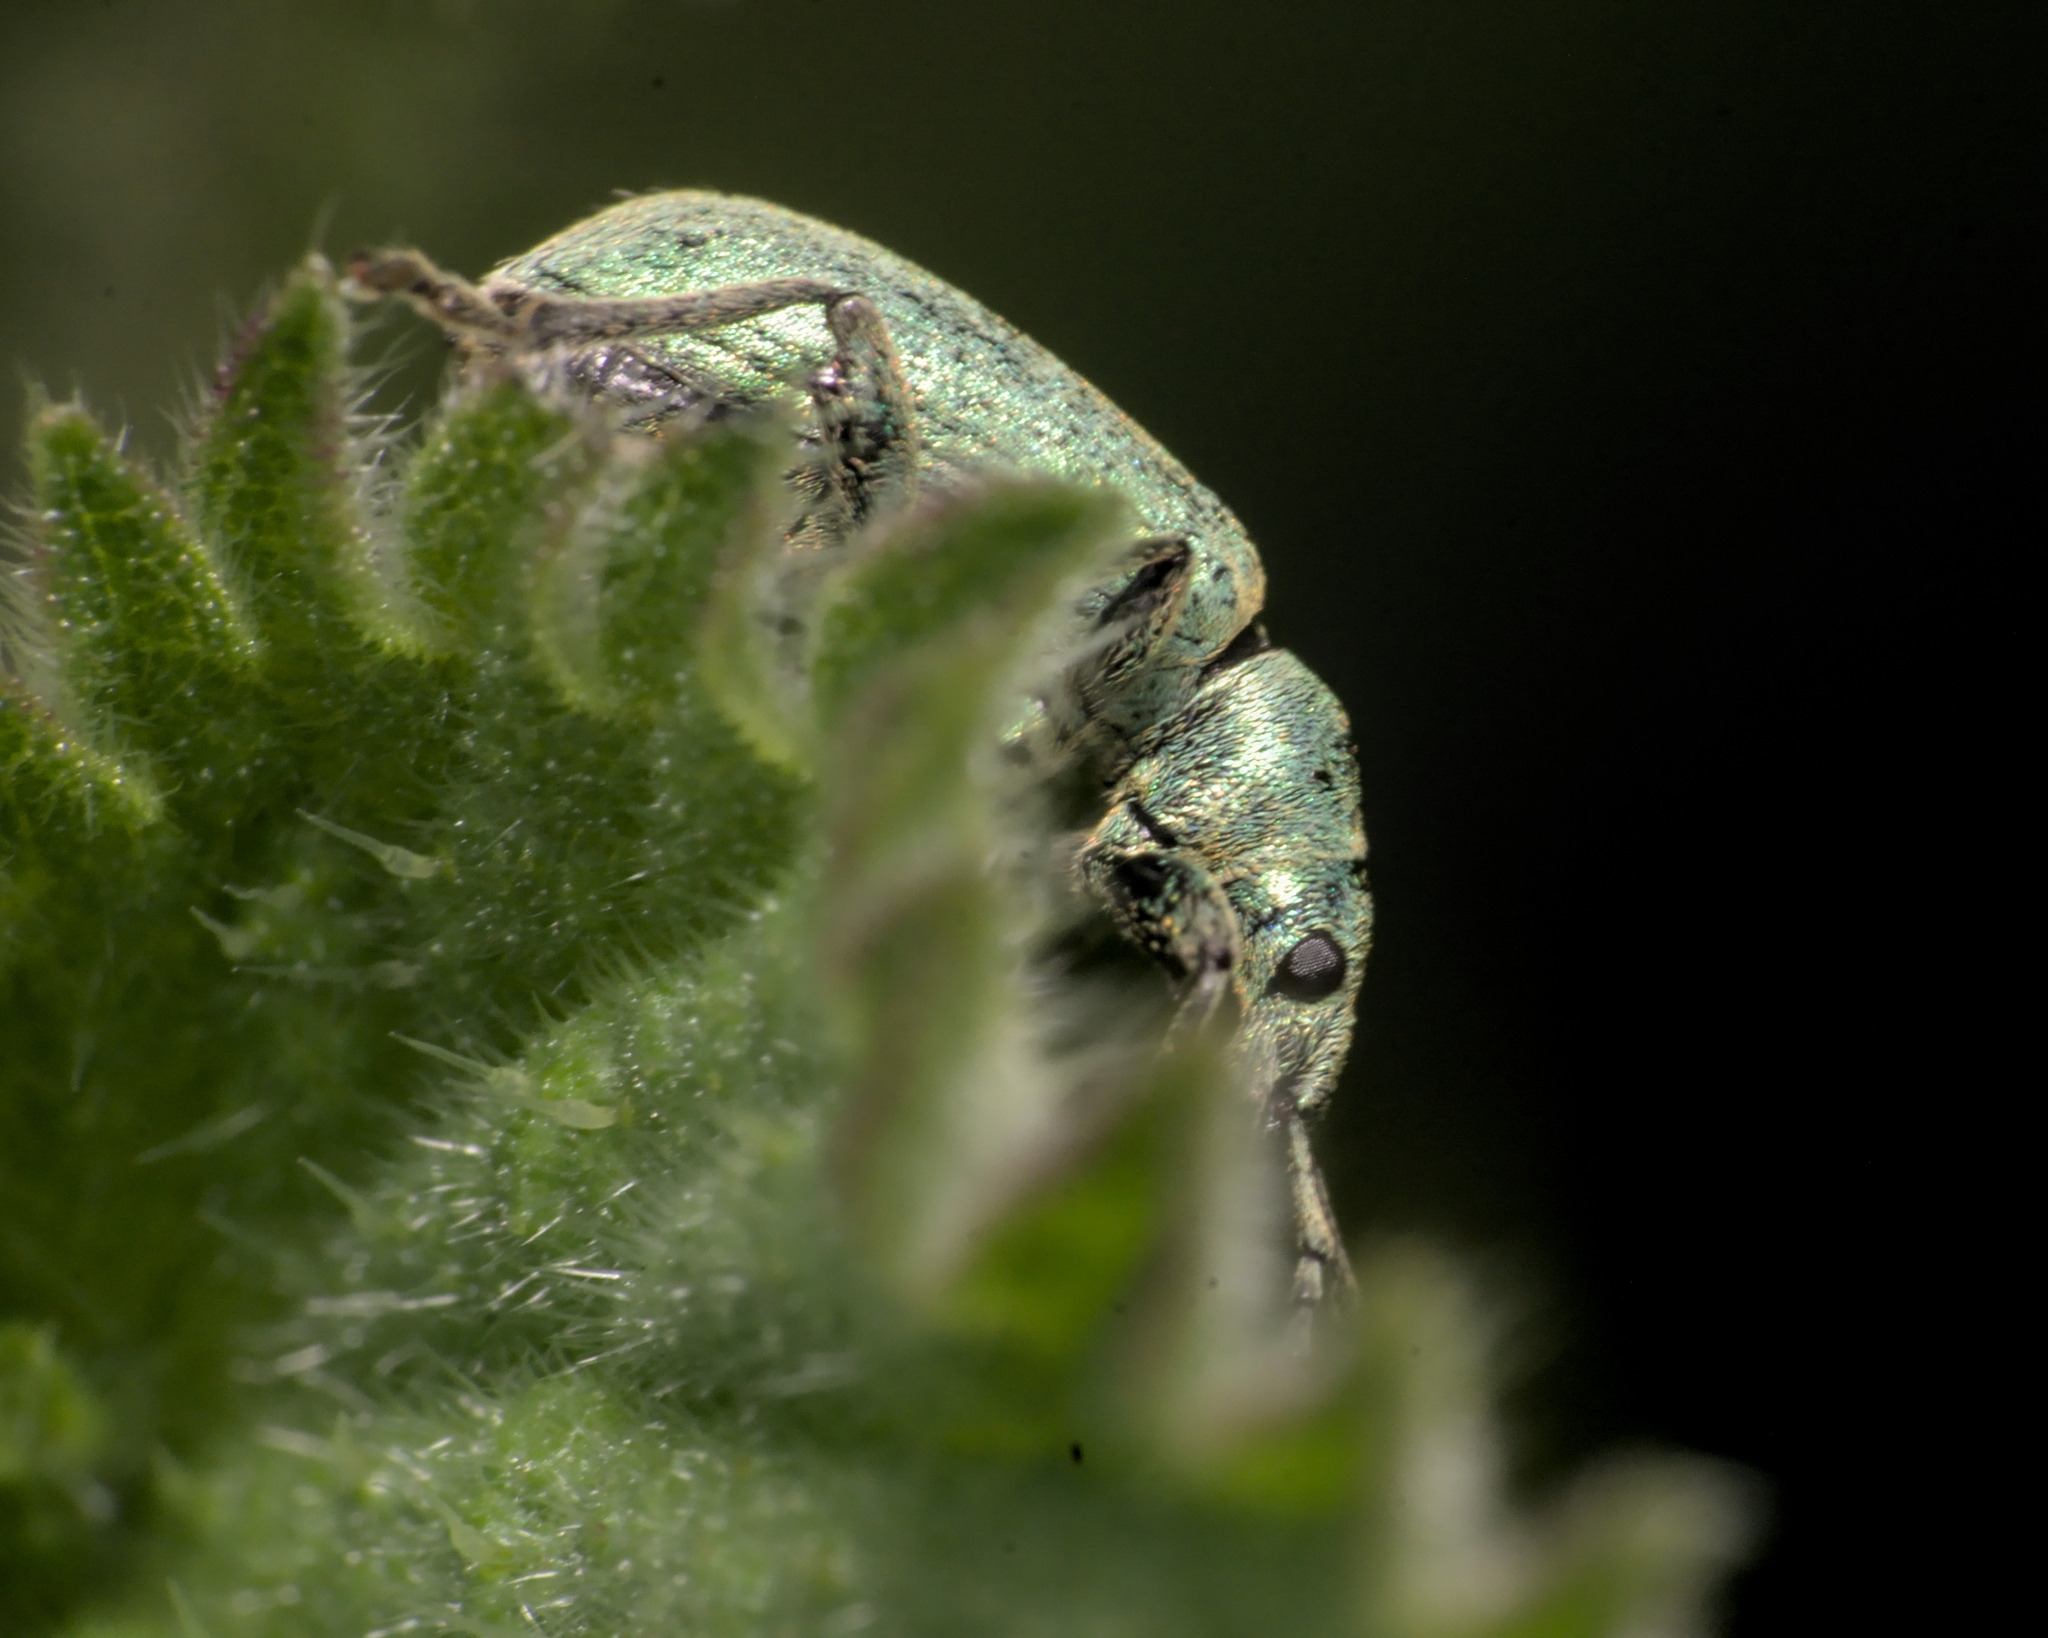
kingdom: Animalia
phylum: Arthropoda
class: Insecta
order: Coleoptera
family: Curculionidae
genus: Phyllobius
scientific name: Phyllobius pomaceus
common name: Green nettle weevil
